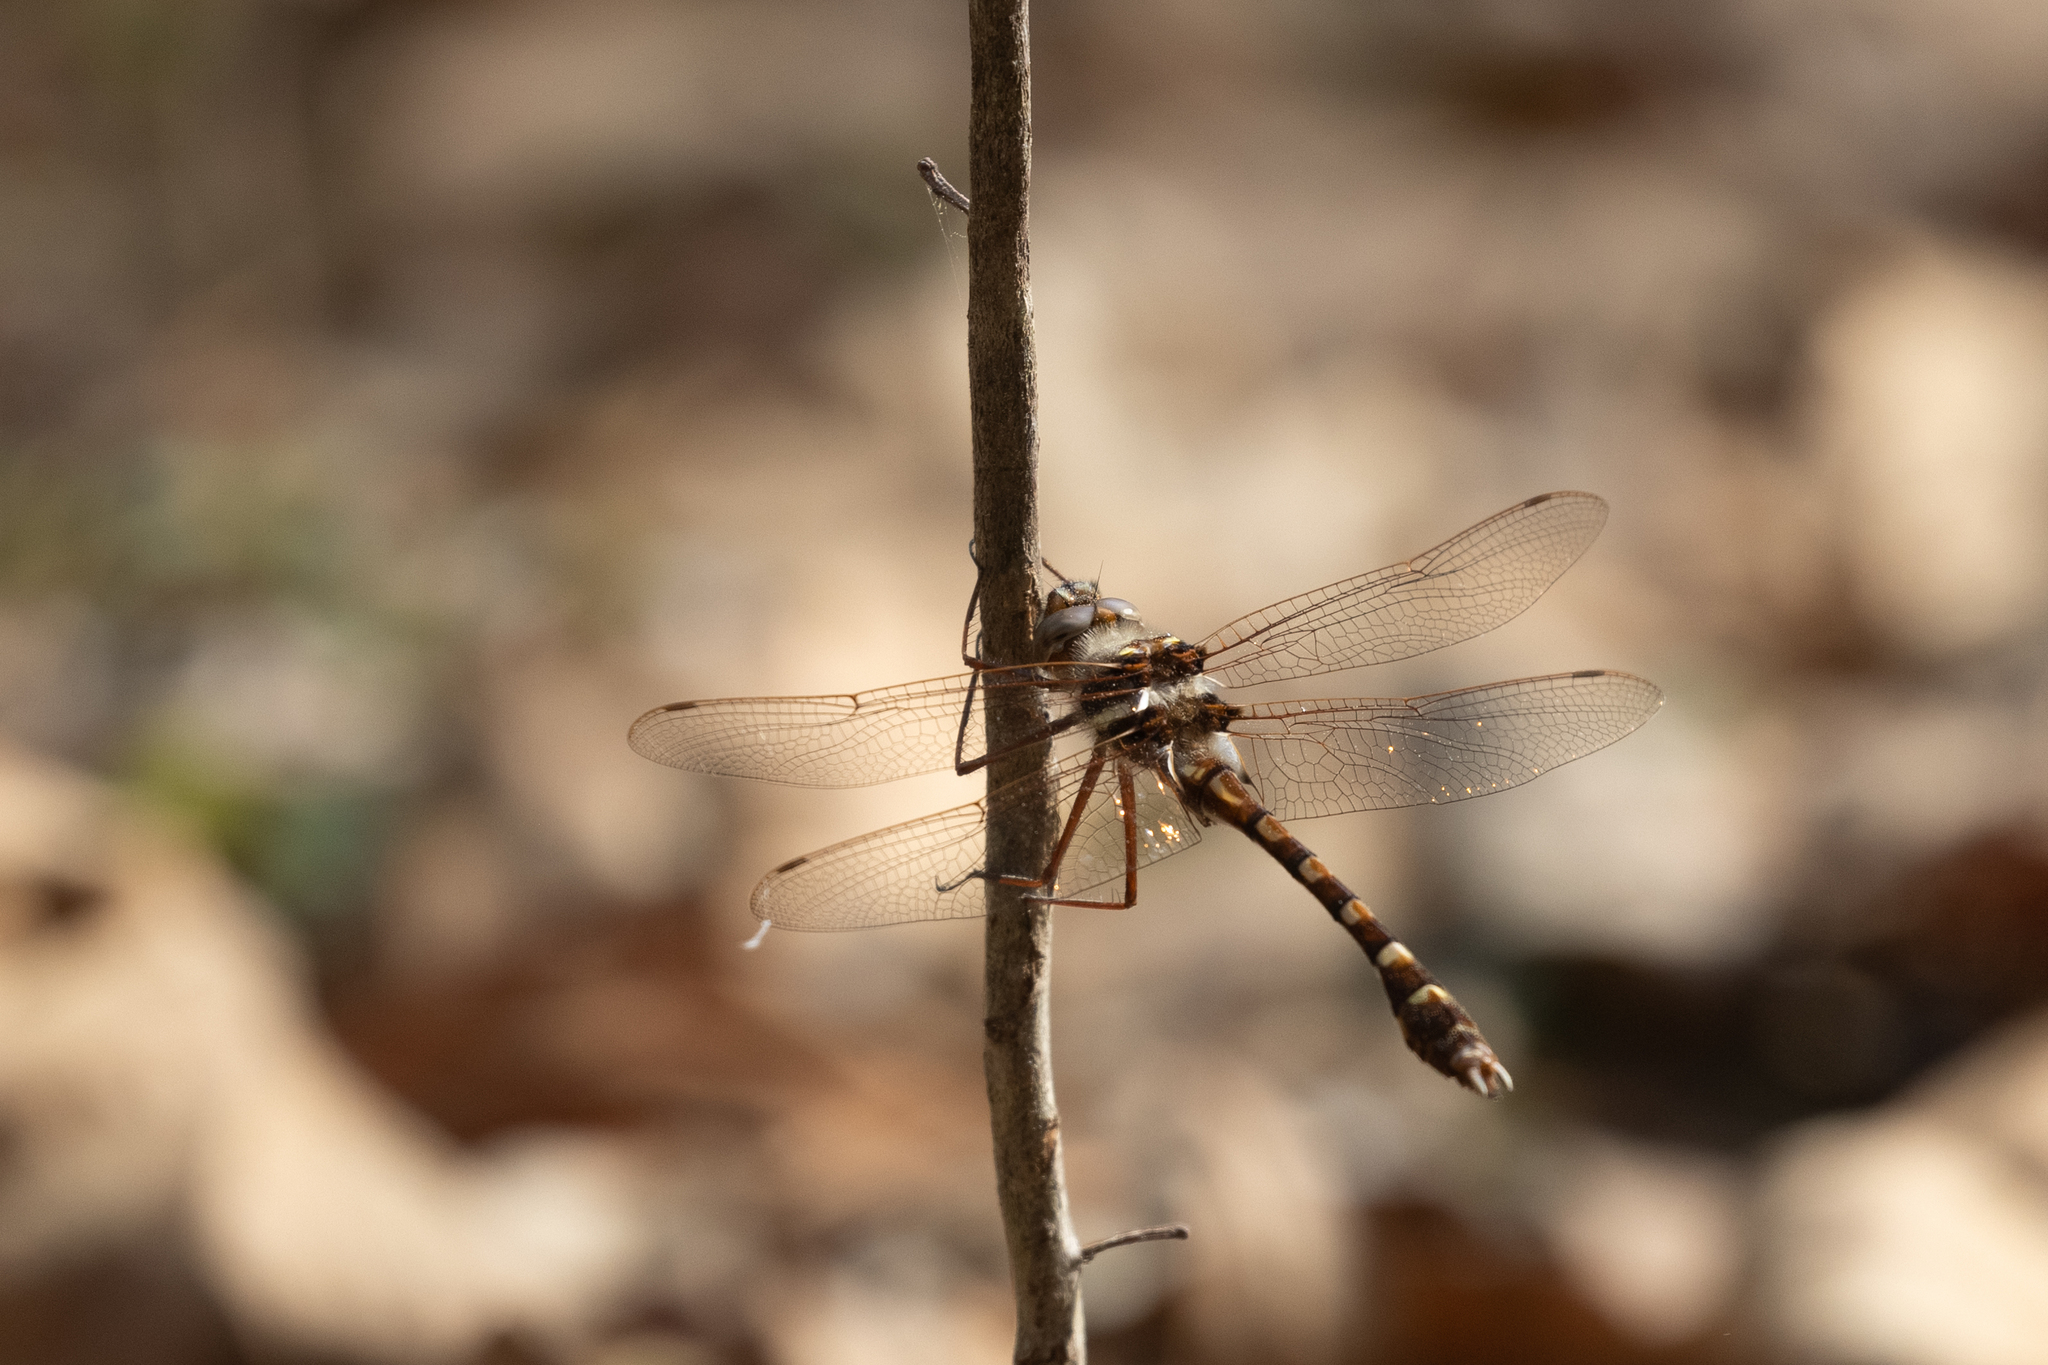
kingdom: Animalia
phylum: Arthropoda
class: Insecta
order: Odonata
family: Macromiidae
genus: Didymops
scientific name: Didymops transversa
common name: Stream cruiser
